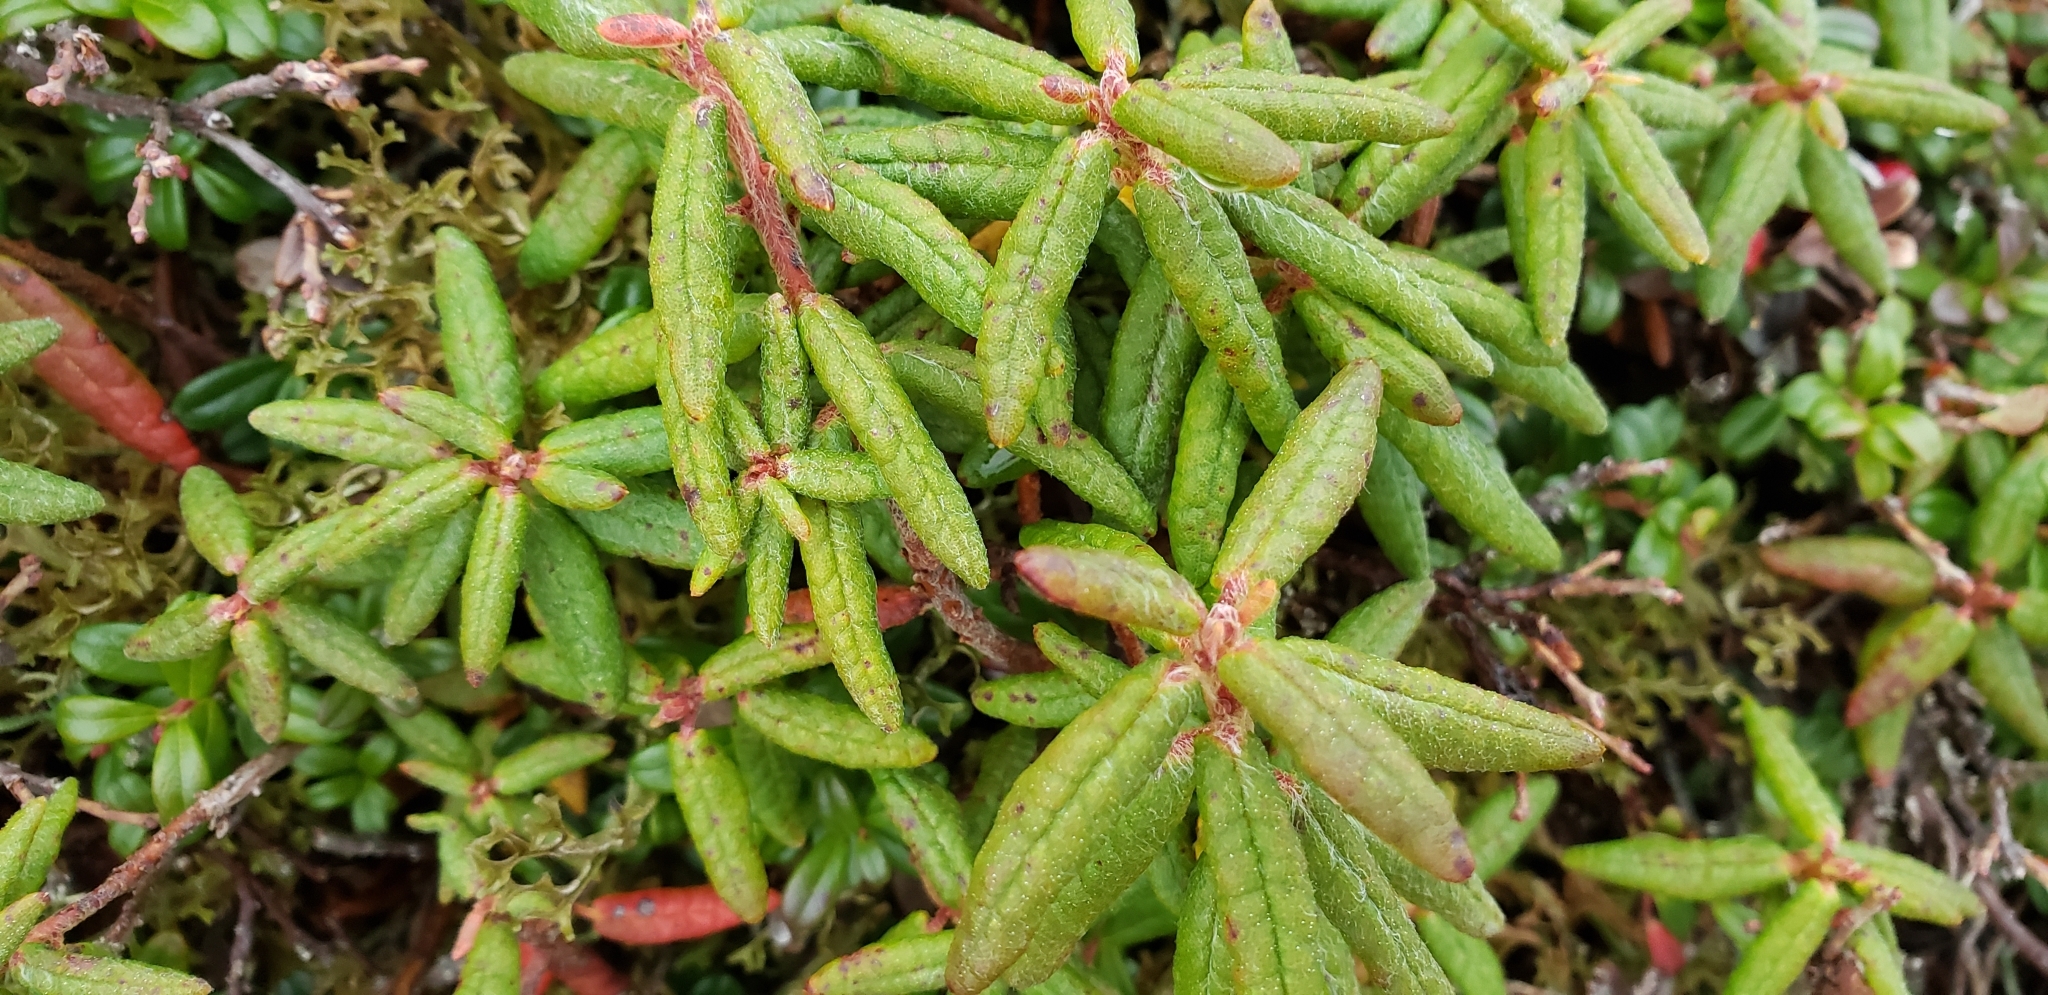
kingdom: Plantae
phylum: Tracheophyta
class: Magnoliopsida
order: Ericales
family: Ericaceae
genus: Rhododendron
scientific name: Rhododendron groenlandicum
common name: Bog labrador tea
